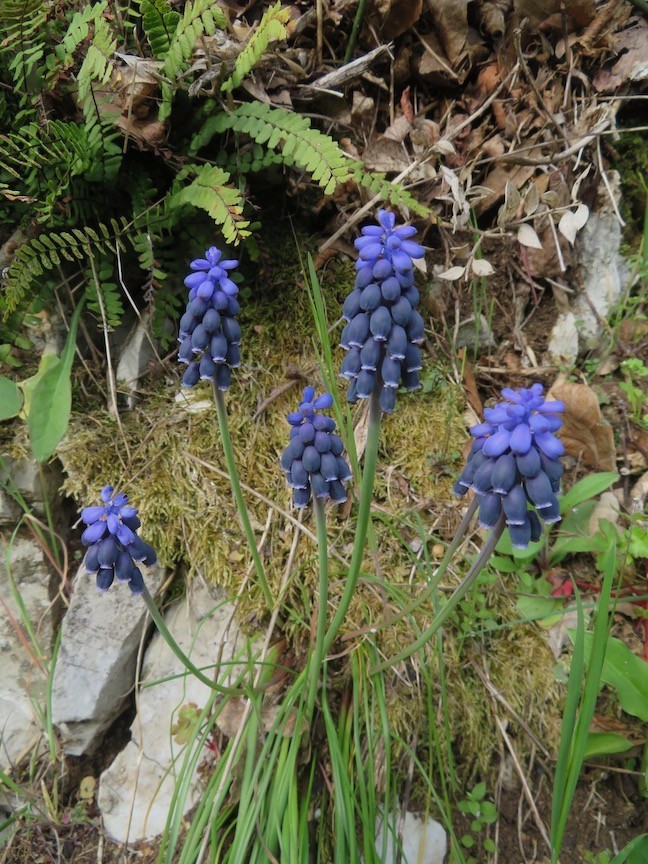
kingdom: Plantae
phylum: Tracheophyta
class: Liliopsida
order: Asparagales
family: Asparagaceae
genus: Muscari
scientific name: Muscari neglectum
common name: Grape-hyacinth
